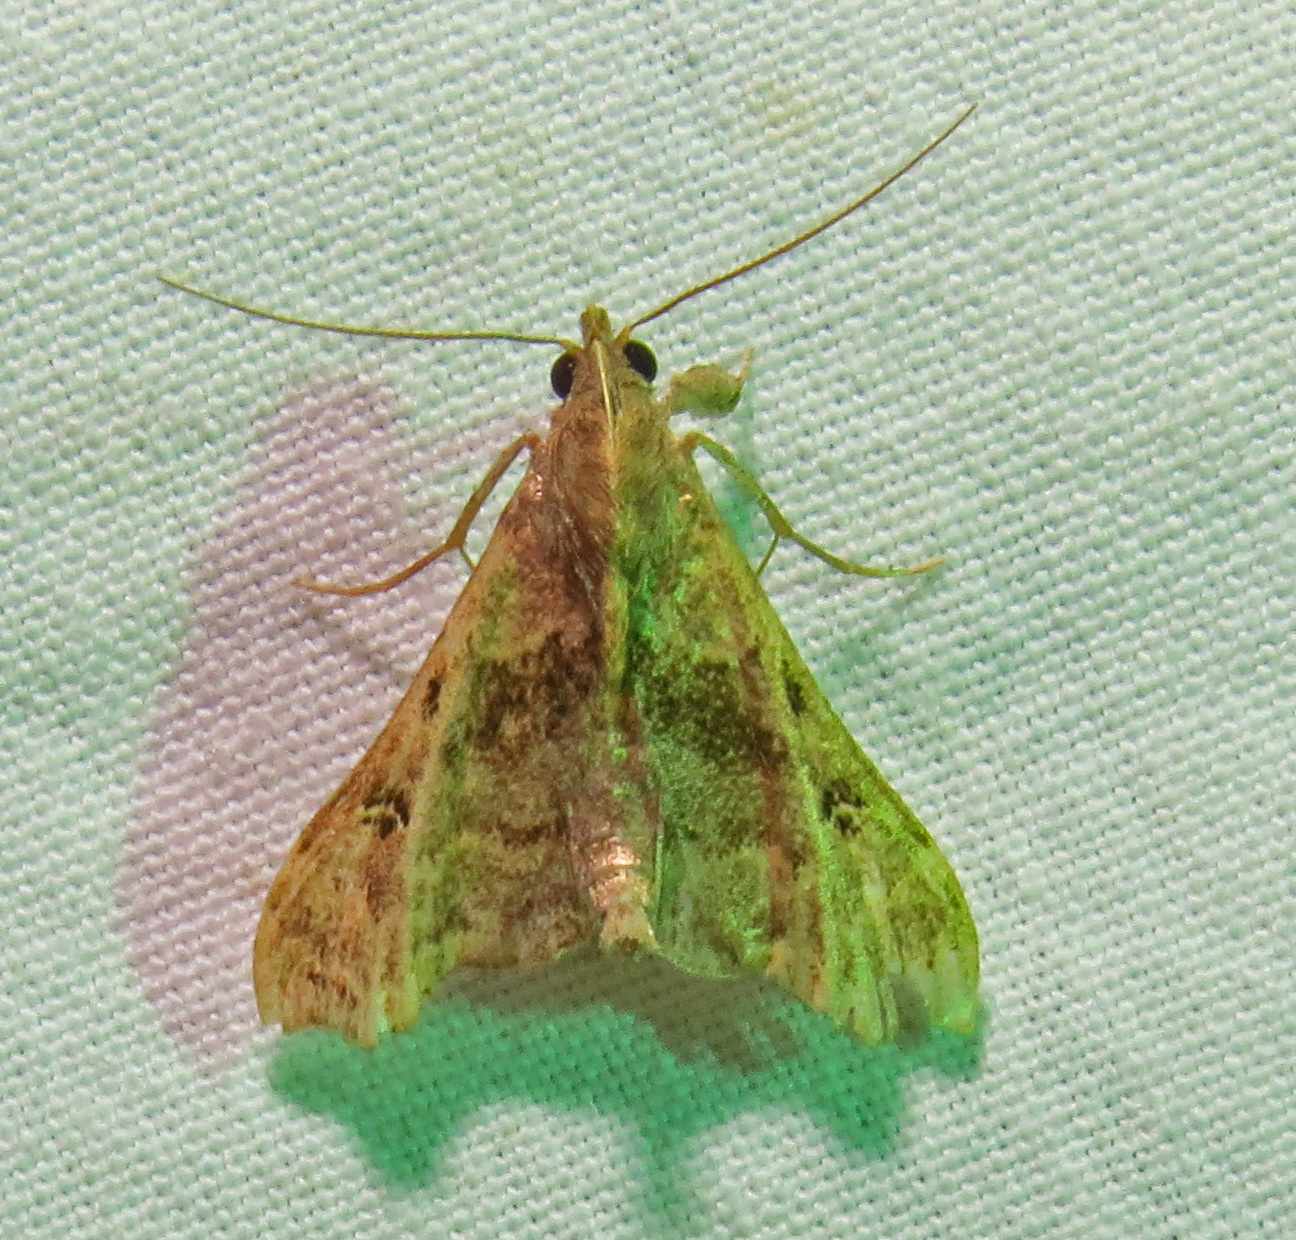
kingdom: Animalia
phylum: Arthropoda
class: Insecta
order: Lepidoptera
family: Erebidae
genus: Palthis
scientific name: Palthis asopialis
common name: Faint-spotted palthis moth
